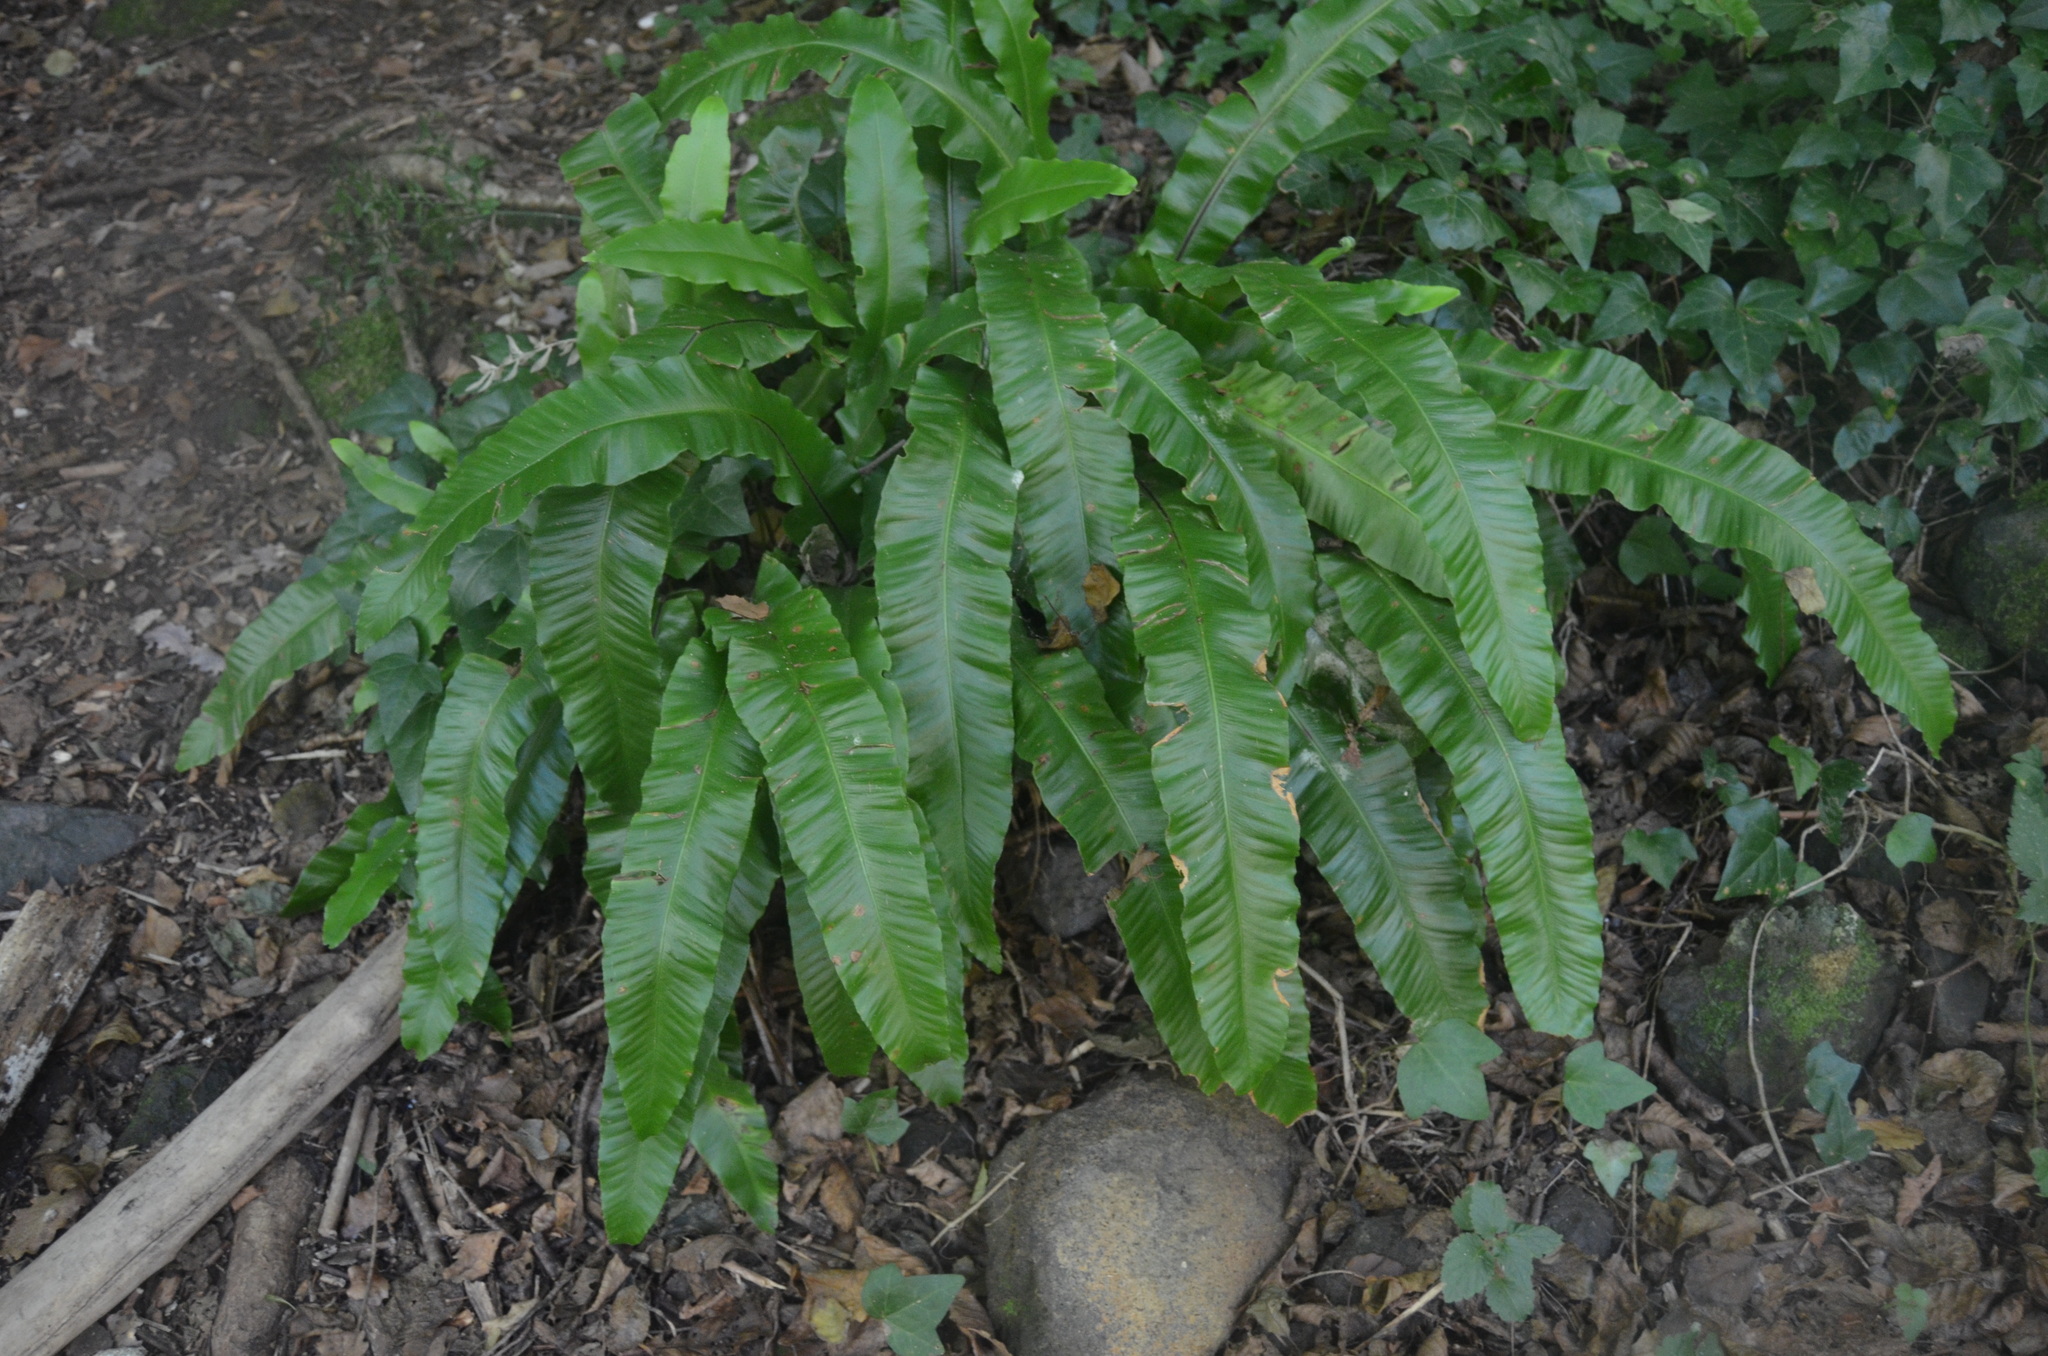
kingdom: Plantae
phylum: Tracheophyta
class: Polypodiopsida
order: Polypodiales
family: Aspleniaceae
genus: Asplenium
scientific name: Asplenium scolopendrium
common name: Hart's-tongue fern
